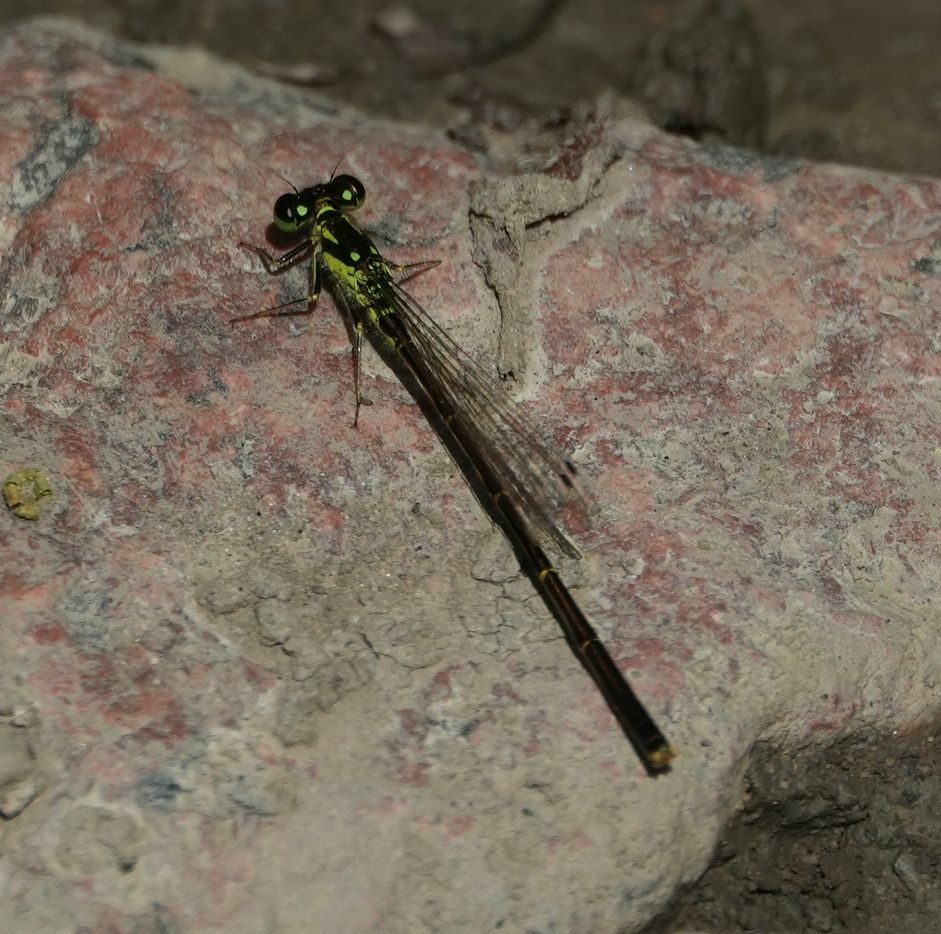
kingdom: Animalia
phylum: Arthropoda
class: Insecta
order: Odonata
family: Coenagrionidae
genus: Ischnura
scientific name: Ischnura posita
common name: Fragile forktail
